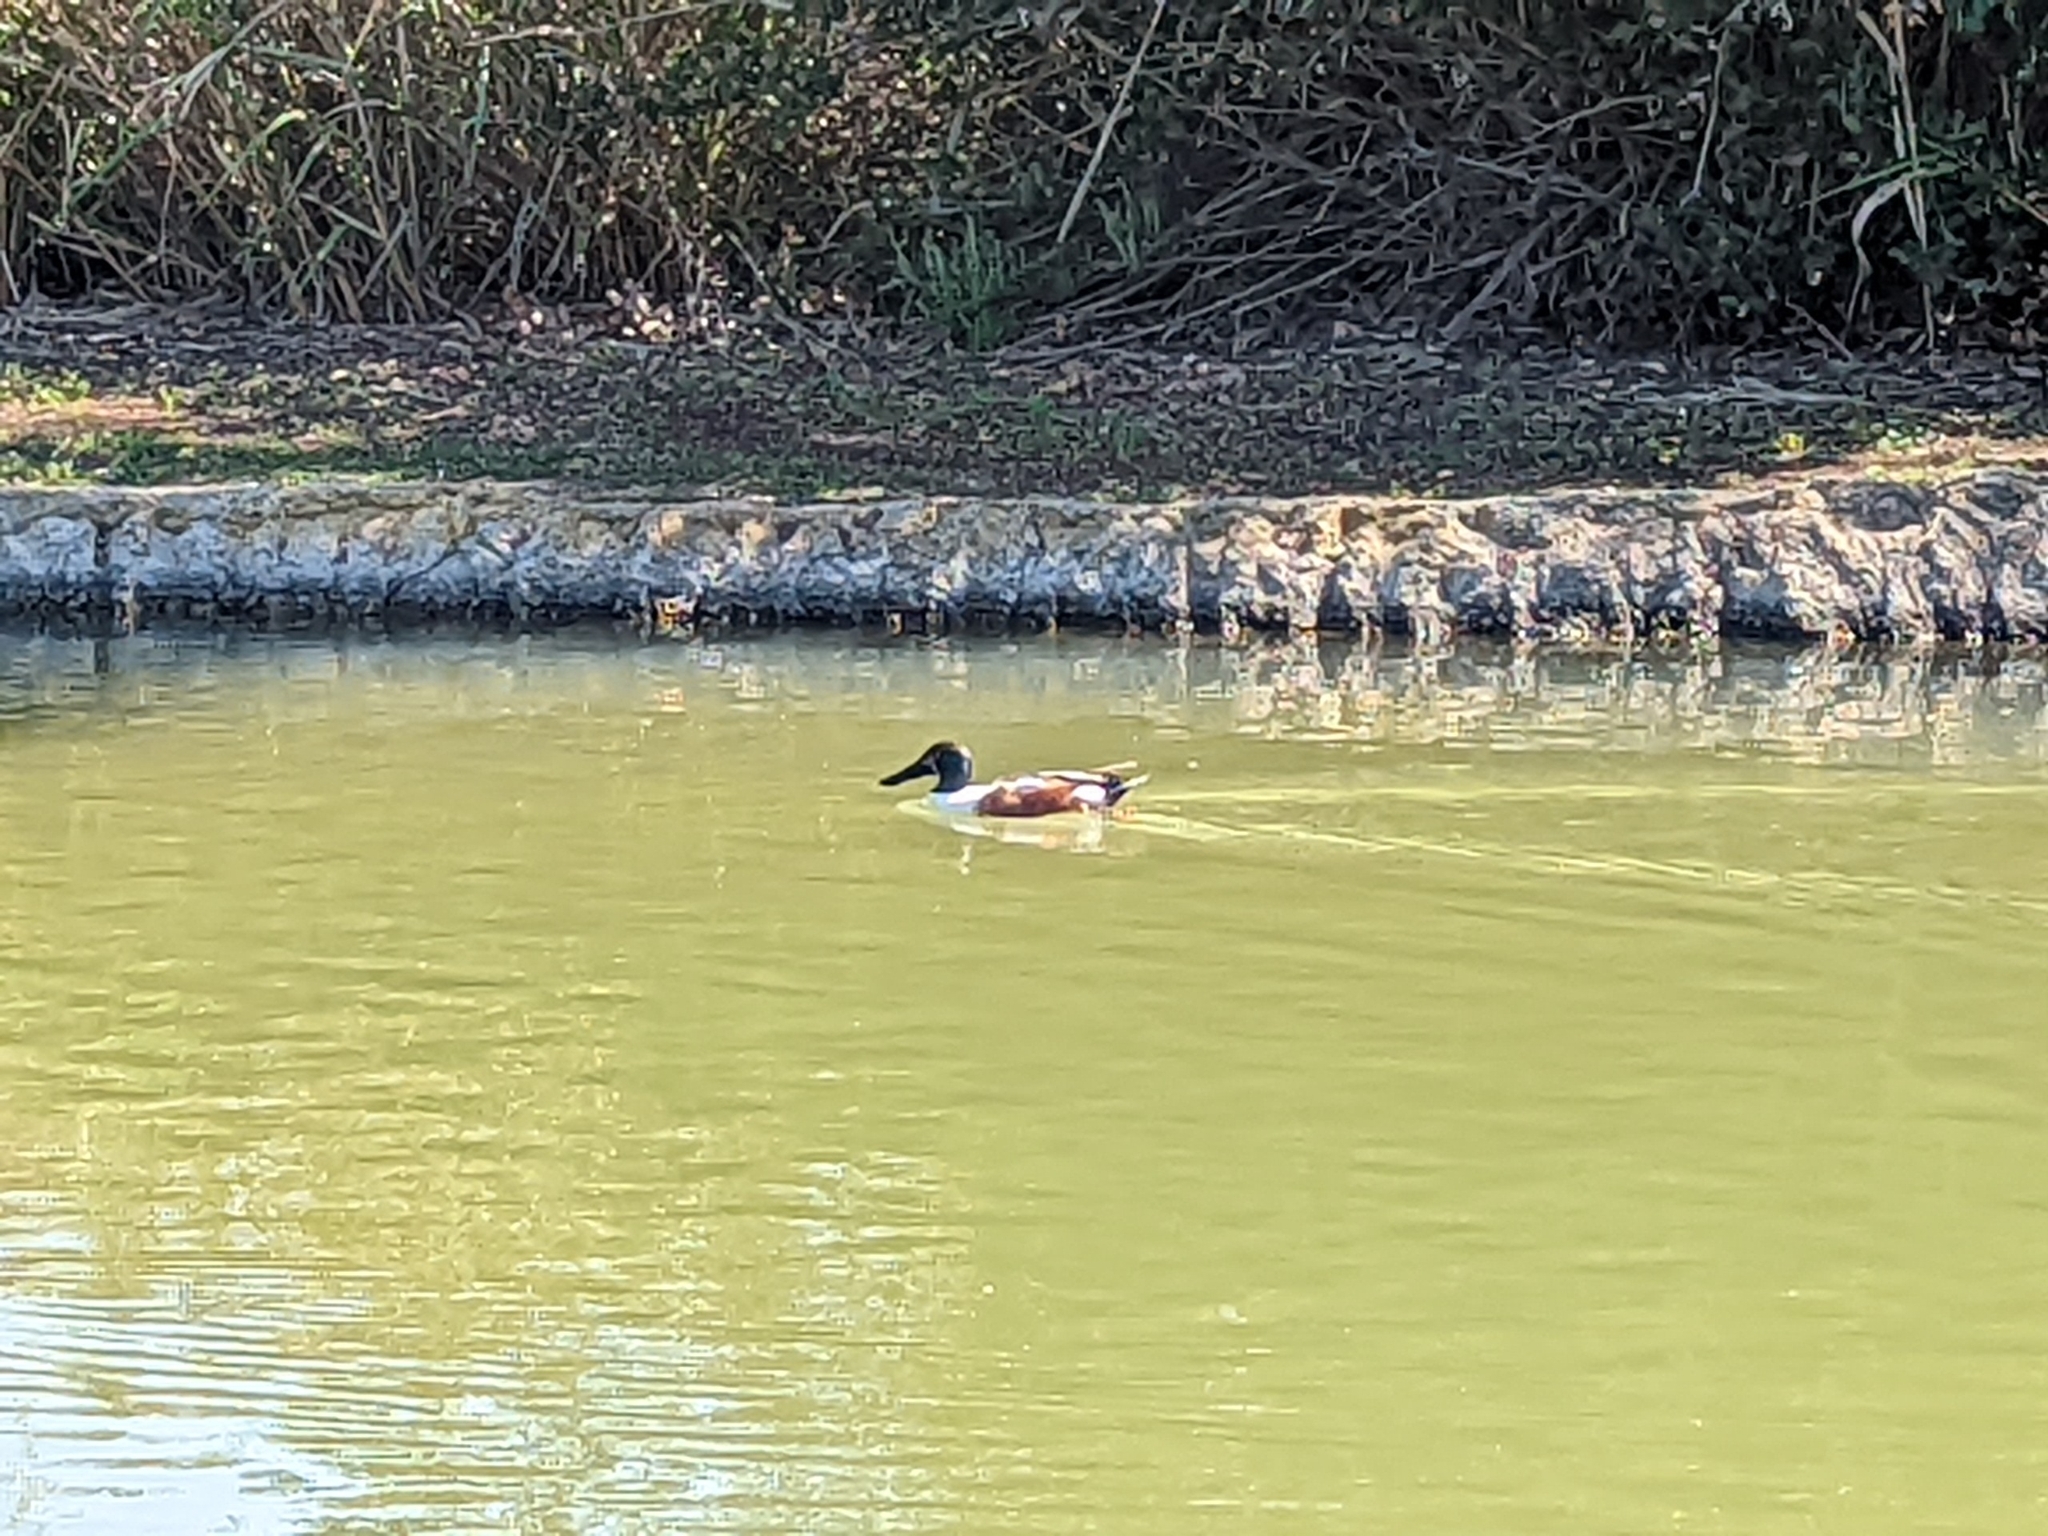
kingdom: Animalia
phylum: Chordata
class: Aves
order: Anseriformes
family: Anatidae
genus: Spatula
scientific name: Spatula clypeata
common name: Northern shoveler
